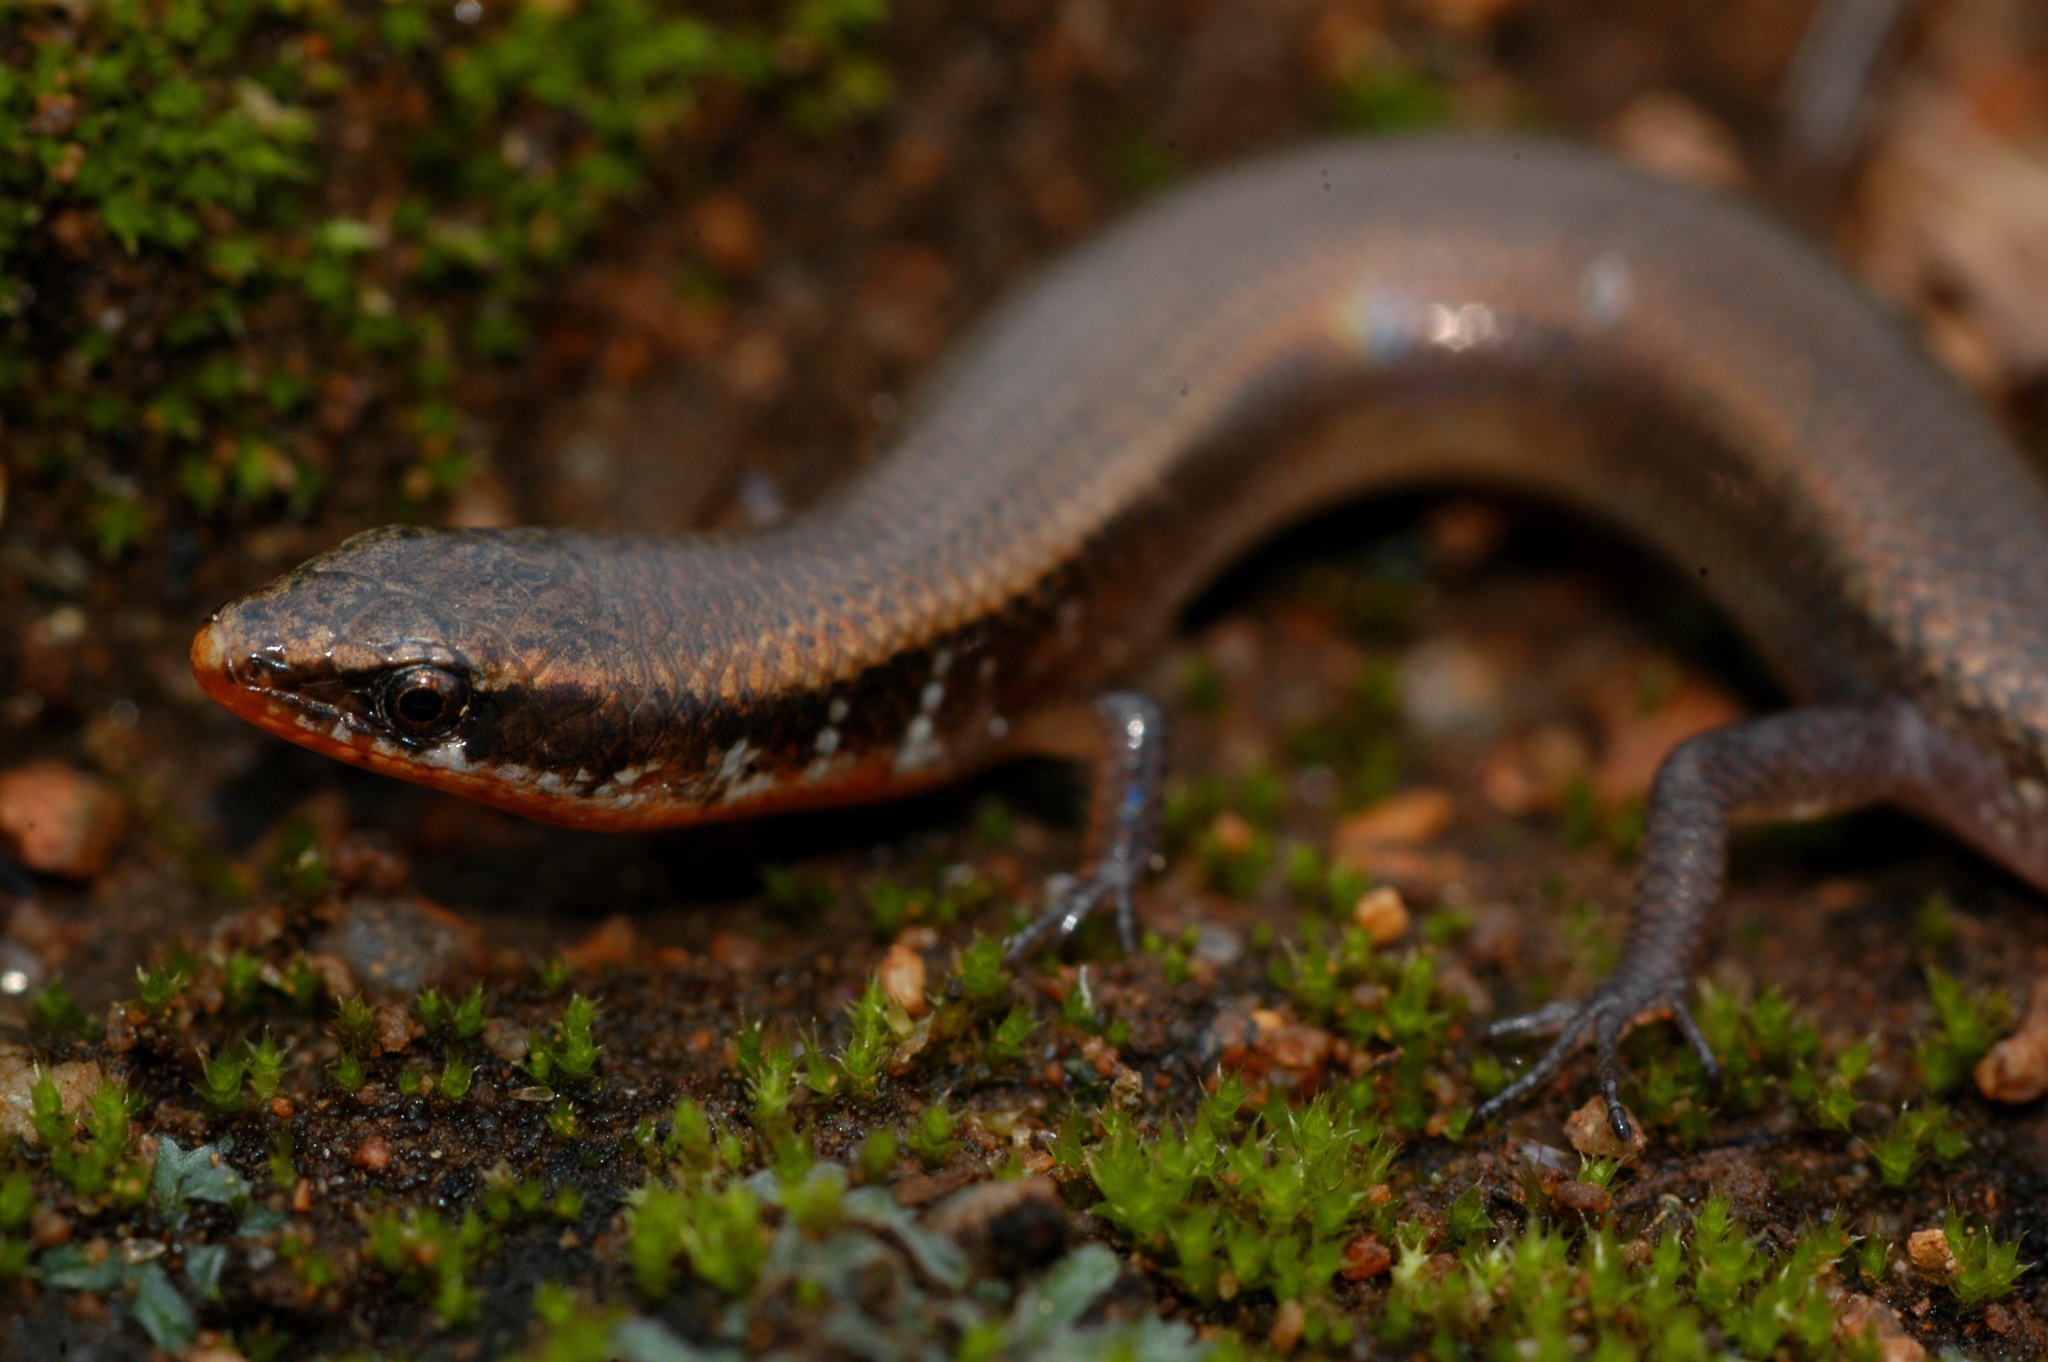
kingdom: Animalia
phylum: Chordata
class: Squamata
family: Scincidae
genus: Panaspis
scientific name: Panaspis maculicollis
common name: Spotted-neck snake-eyed skink
